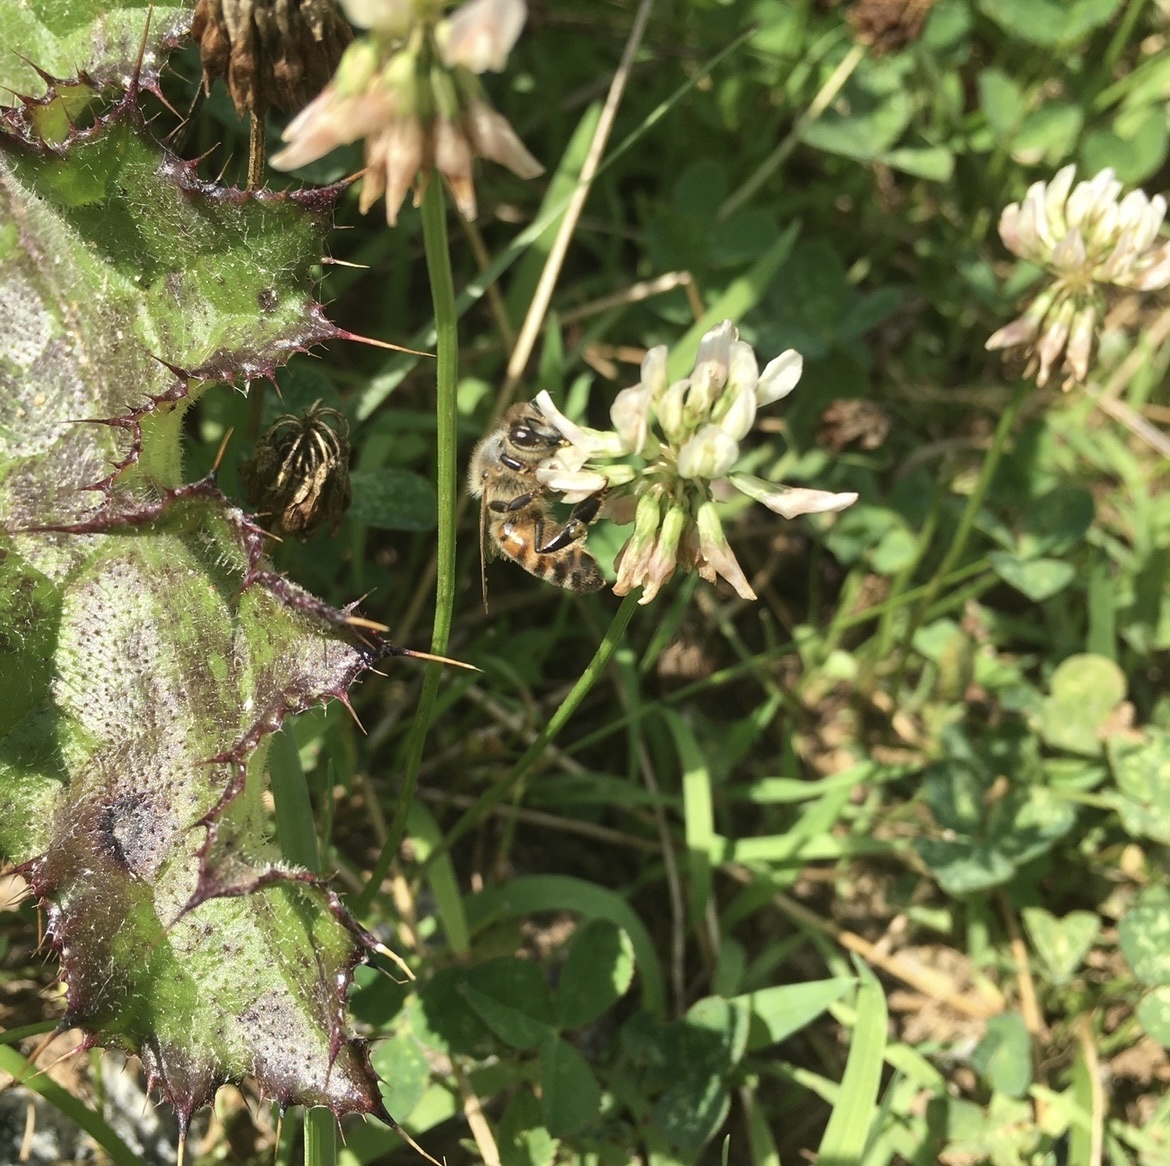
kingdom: Plantae
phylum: Tracheophyta
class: Magnoliopsida
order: Fabales
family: Fabaceae
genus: Trifolium
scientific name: Trifolium repens
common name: White clover
